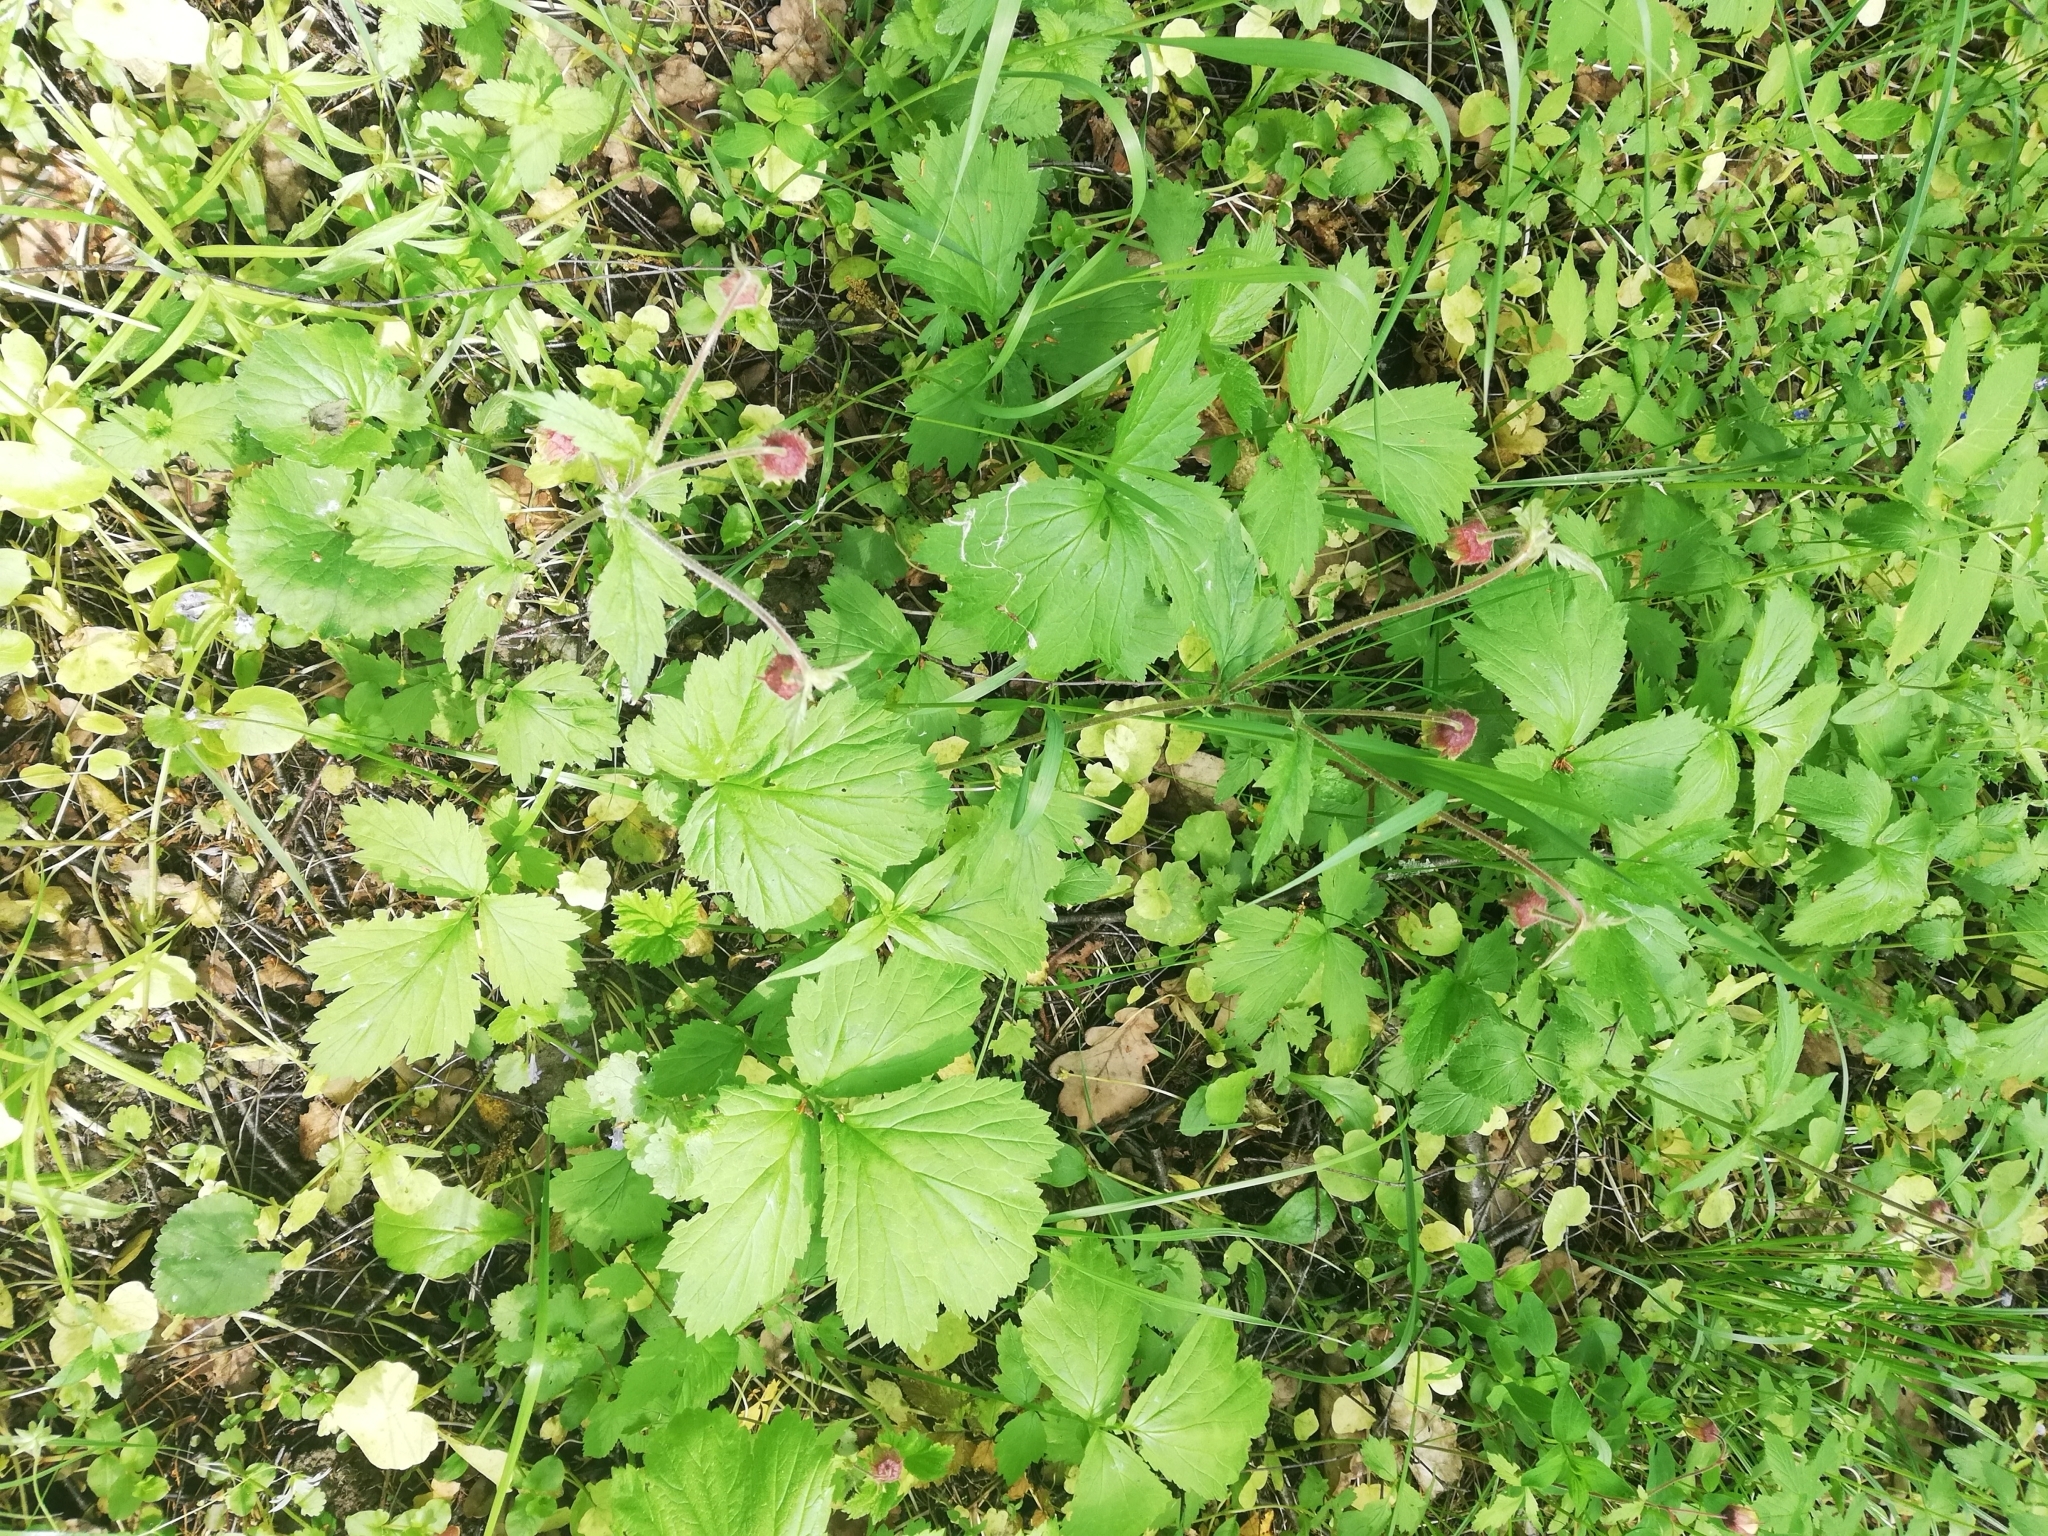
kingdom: Plantae
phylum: Tracheophyta
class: Magnoliopsida
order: Rosales
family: Rosaceae
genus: Geum
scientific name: Geum rivale
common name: Water avens
